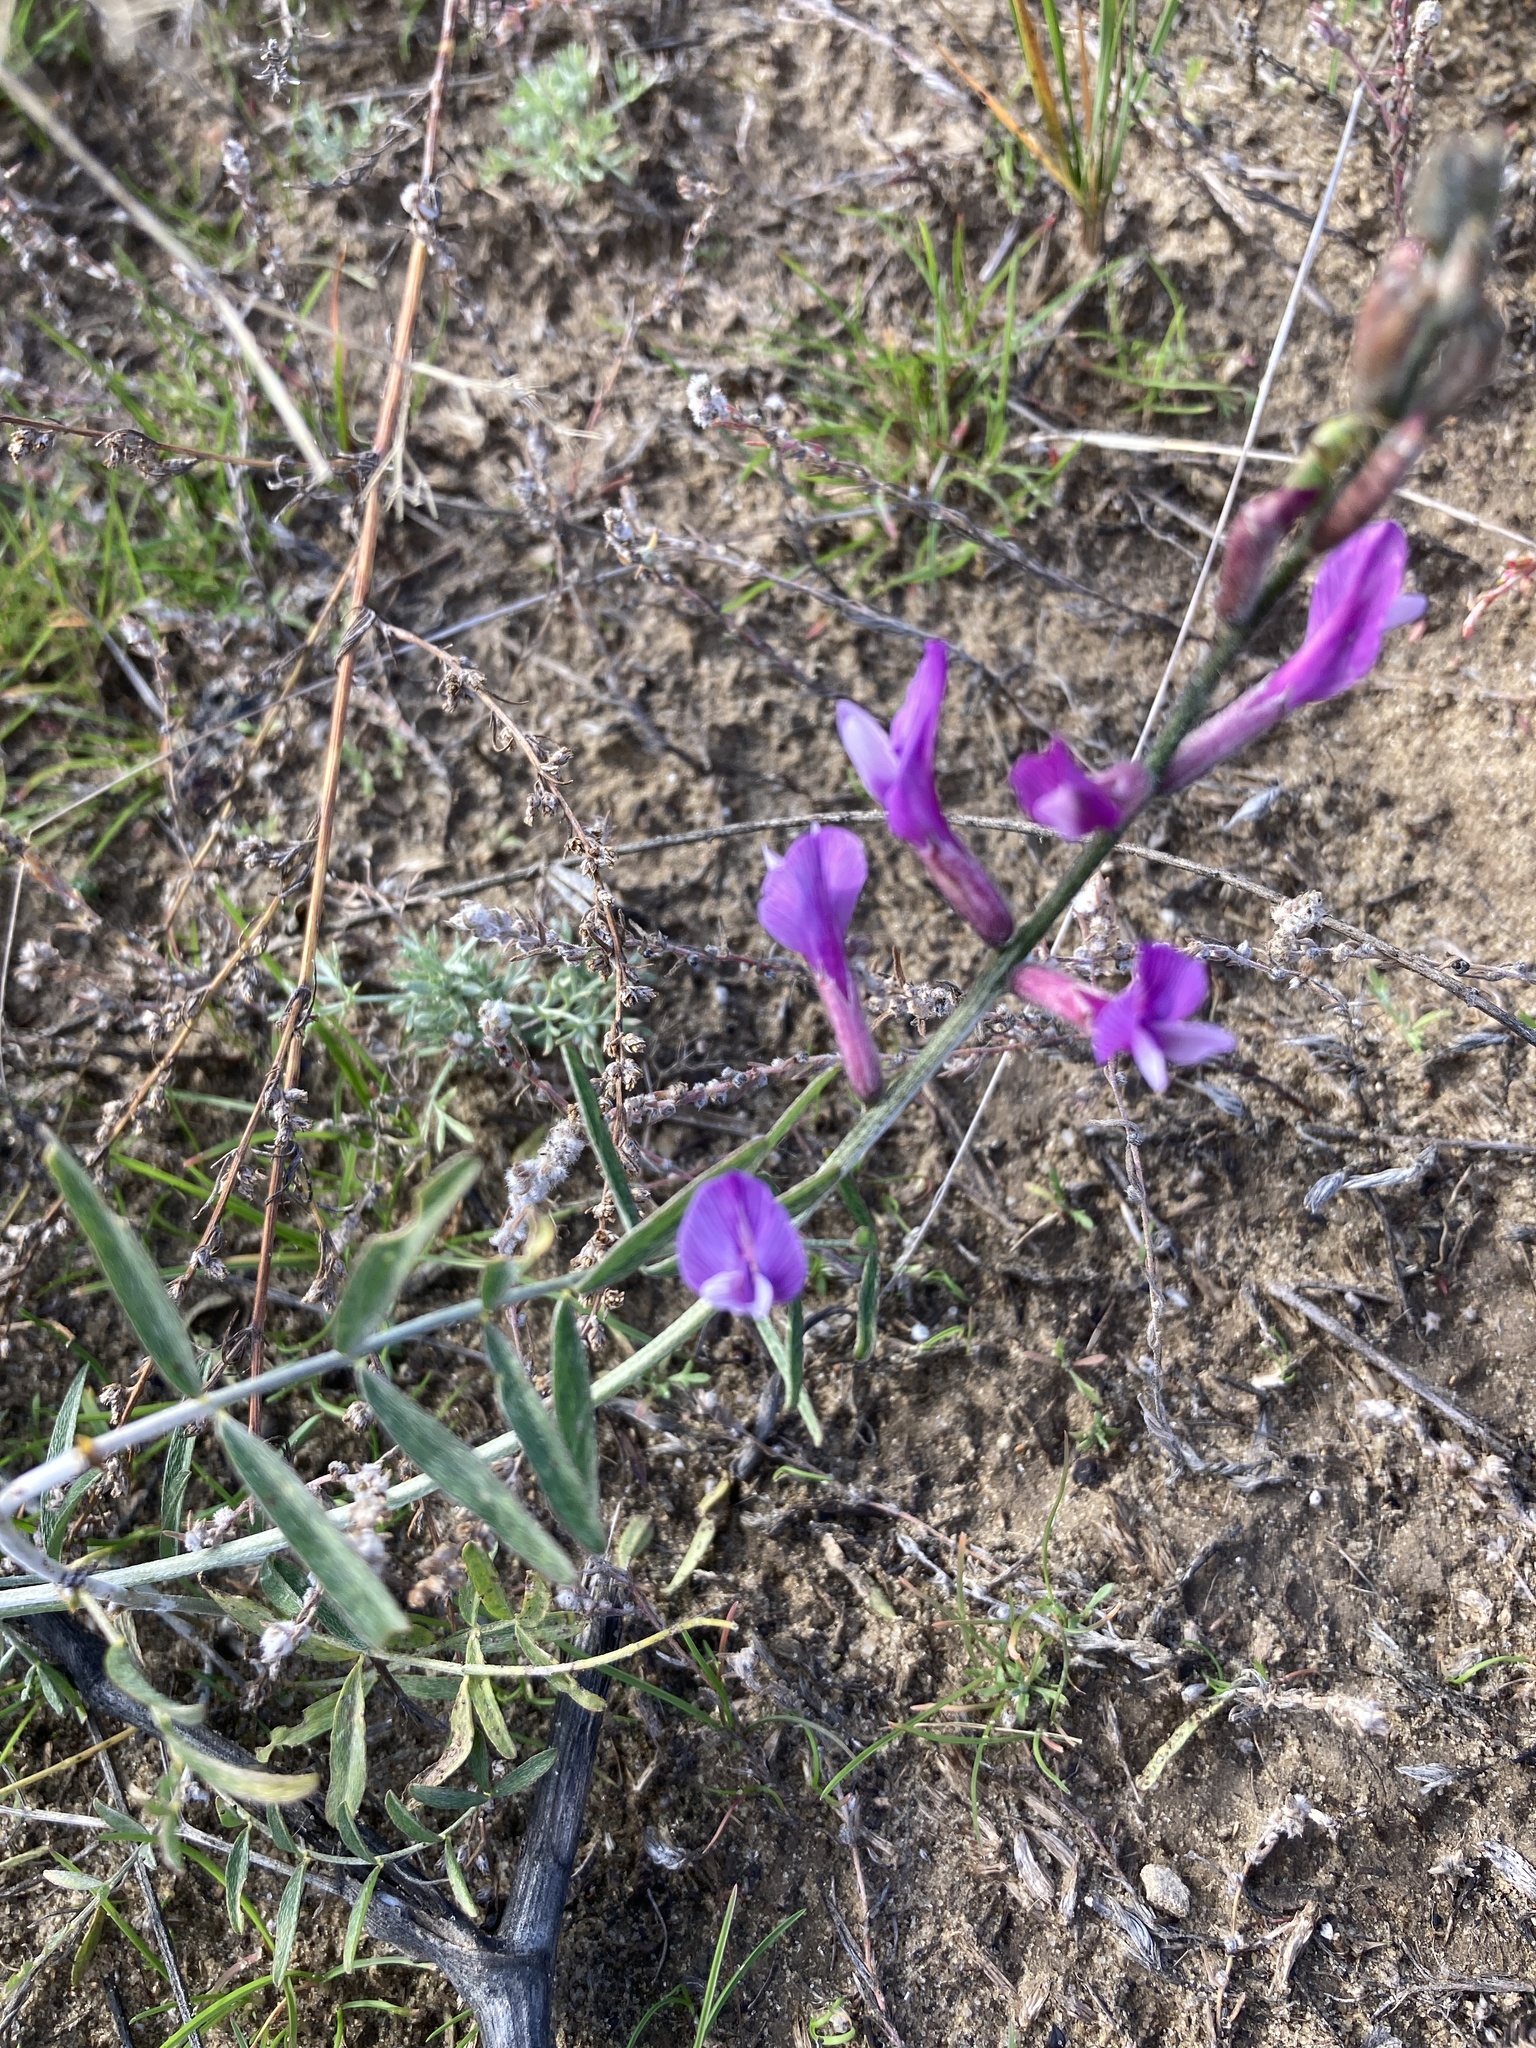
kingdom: Plantae
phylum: Tracheophyta
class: Magnoliopsida
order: Fabales
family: Fabaceae
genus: Astragalus
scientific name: Astragalus varius
